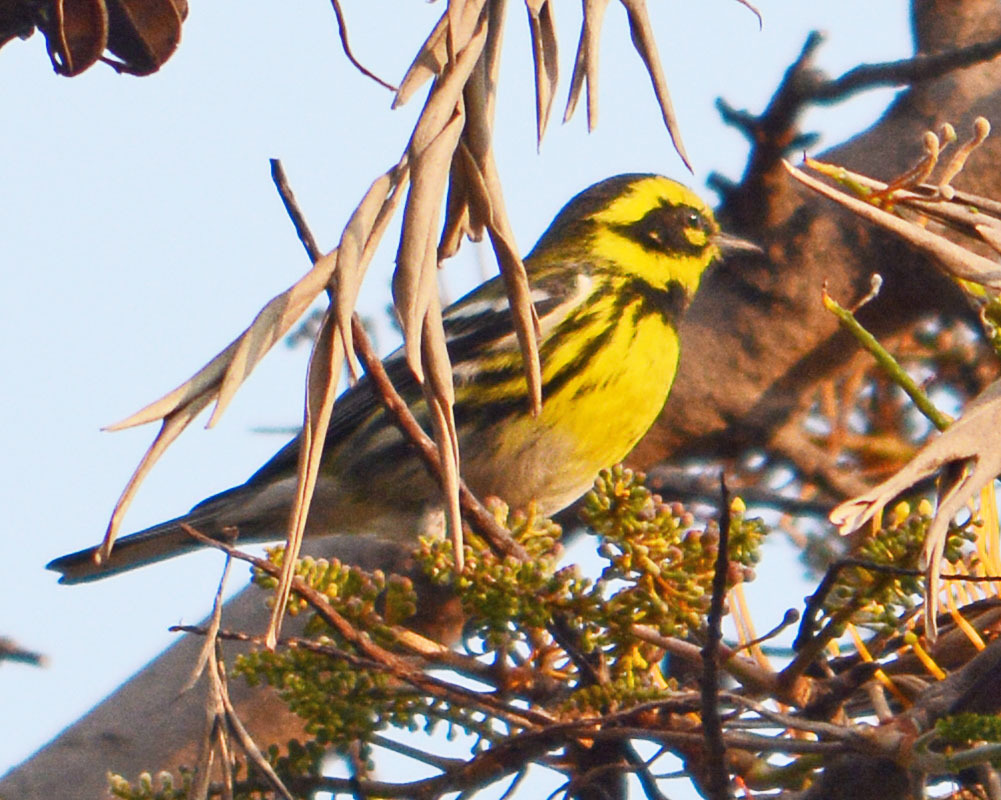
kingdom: Animalia
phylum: Chordata
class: Aves
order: Passeriformes
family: Parulidae
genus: Setophaga
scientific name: Setophaga townsendi
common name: Townsend's warbler
